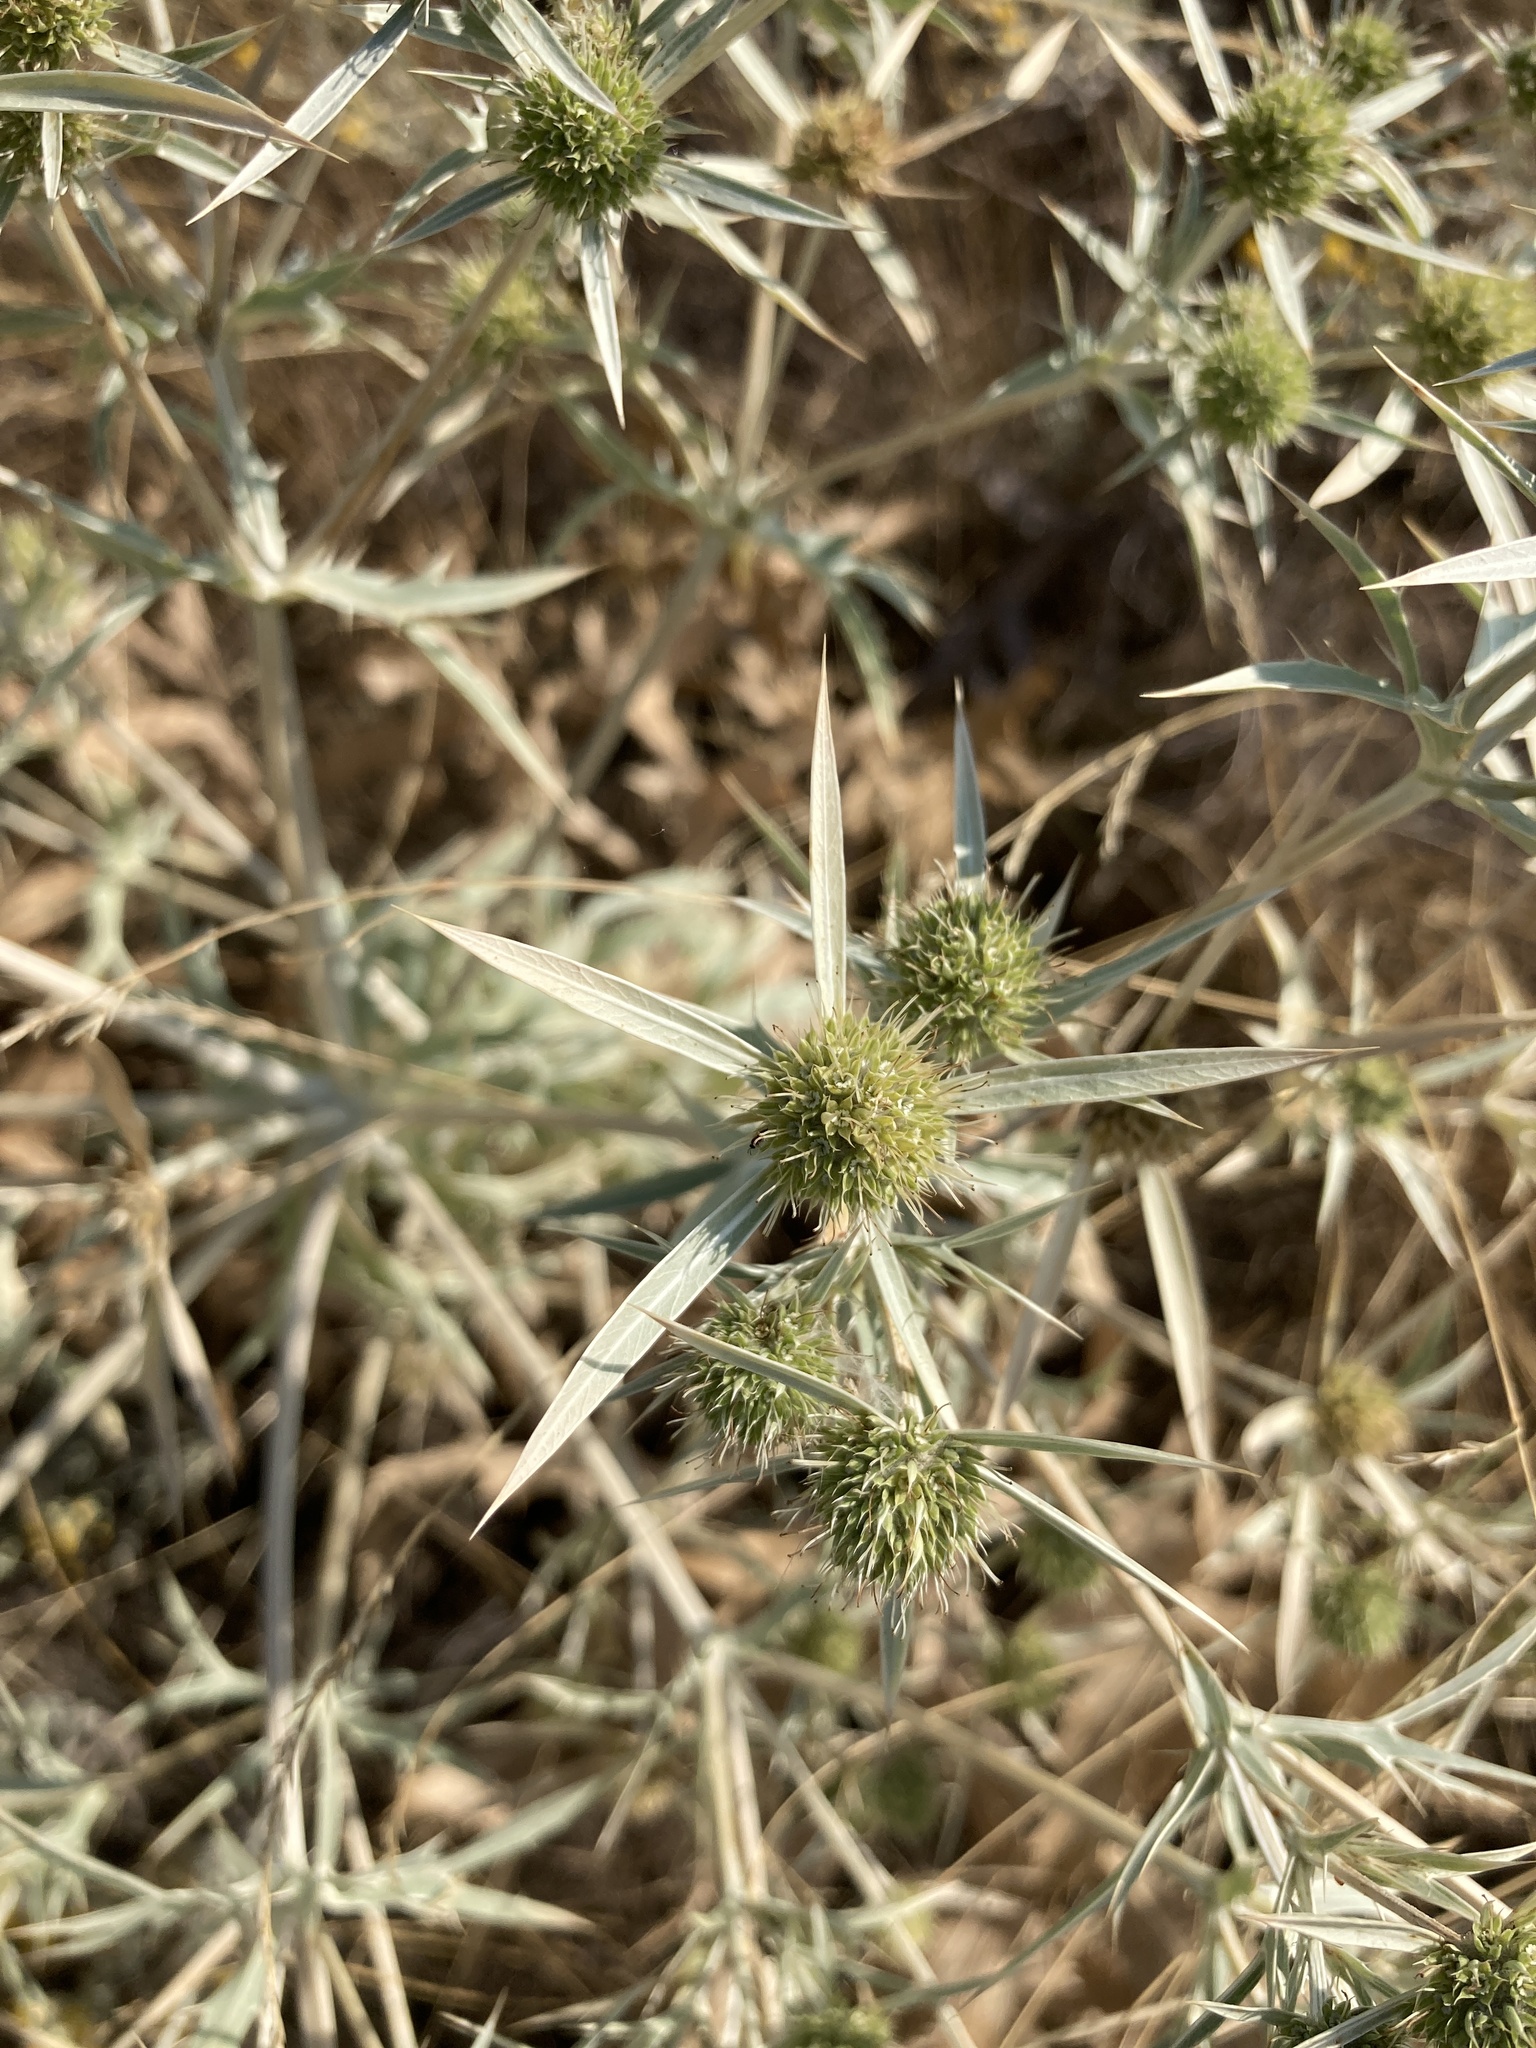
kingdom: Plantae
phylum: Tracheophyta
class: Magnoliopsida
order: Apiales
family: Apiaceae
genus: Eryngium
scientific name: Eryngium campestre
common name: Field eryngo
